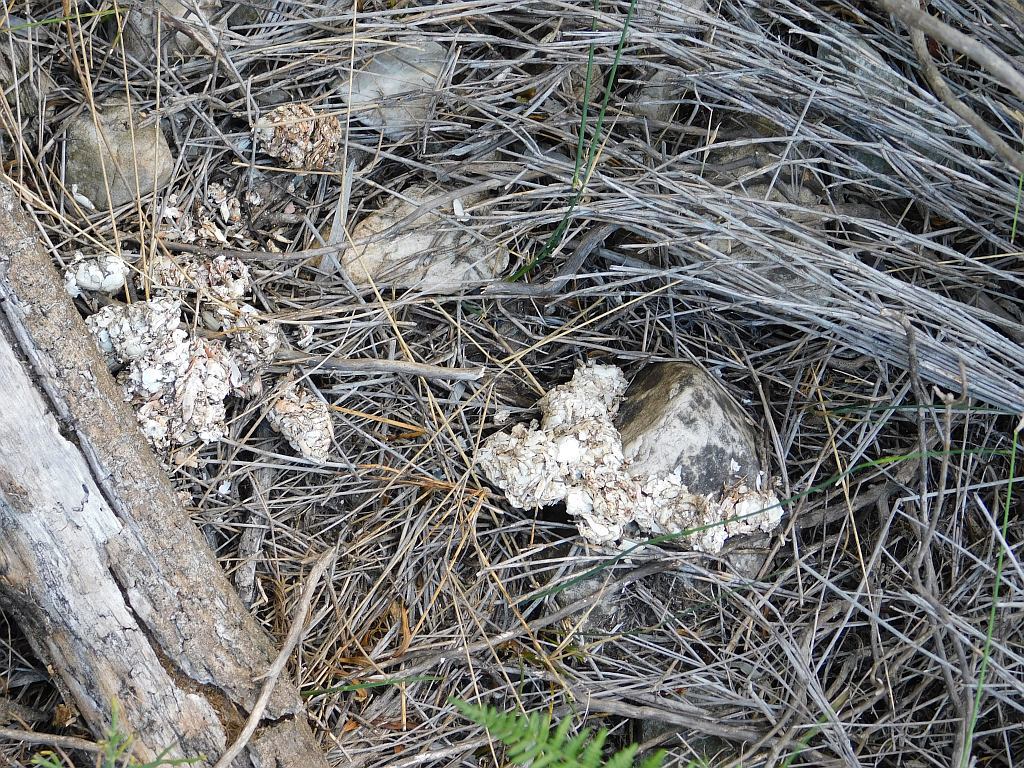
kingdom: Animalia
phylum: Chordata
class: Mammalia
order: Carnivora
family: Mustelidae
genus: Aonyx
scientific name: Aonyx capensis
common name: African clawless otter
